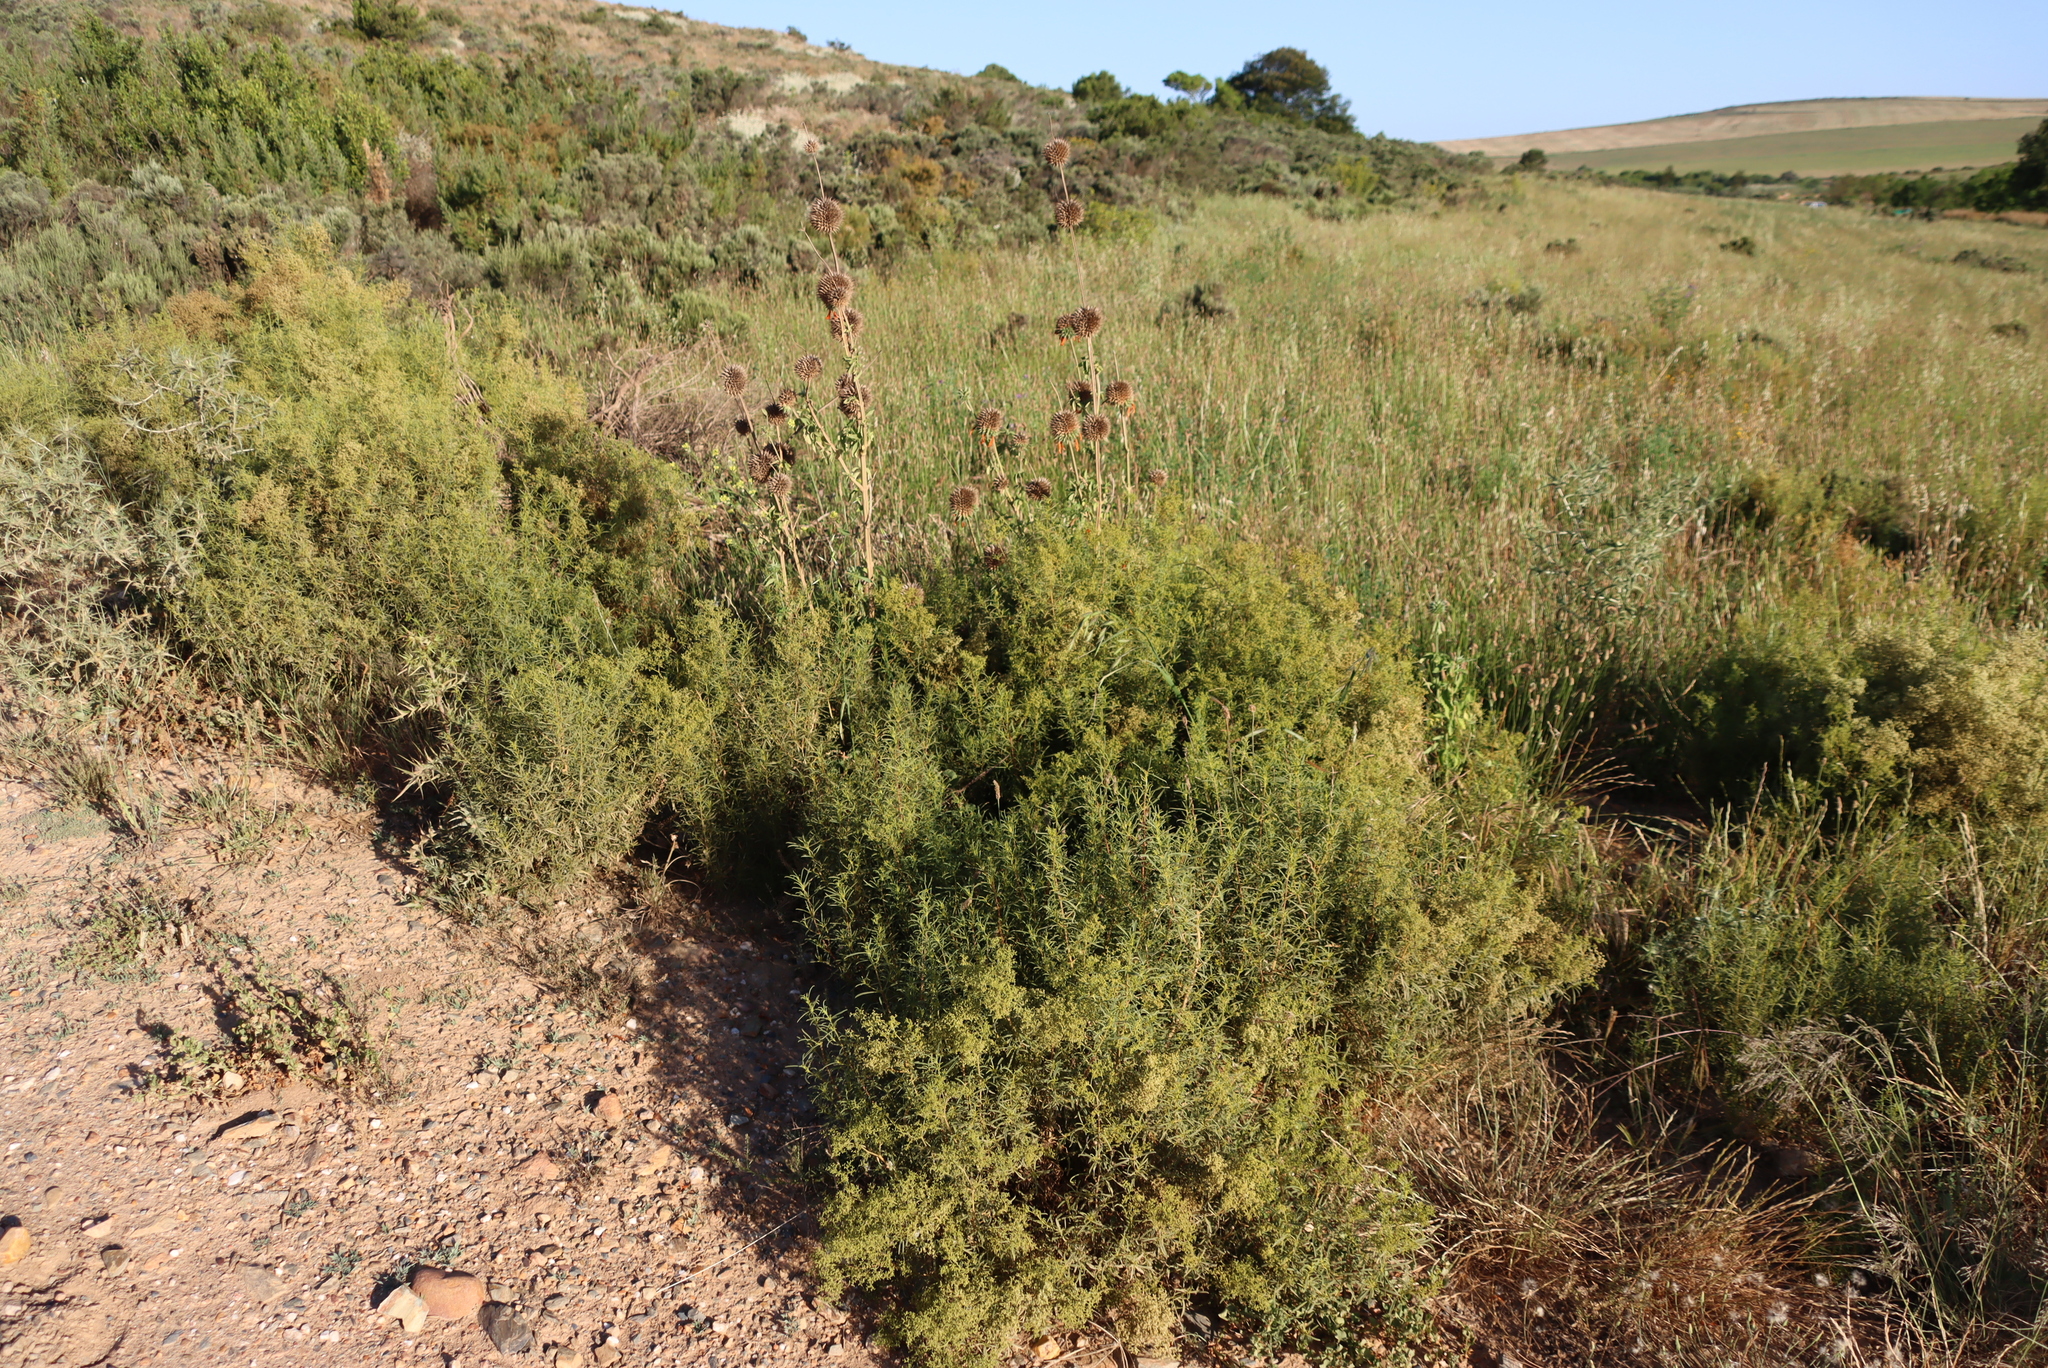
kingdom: Plantae
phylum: Tracheophyta
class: Magnoliopsida
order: Caryophyllales
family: Aizoaceae
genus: Aizoon
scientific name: Aizoon africanum
